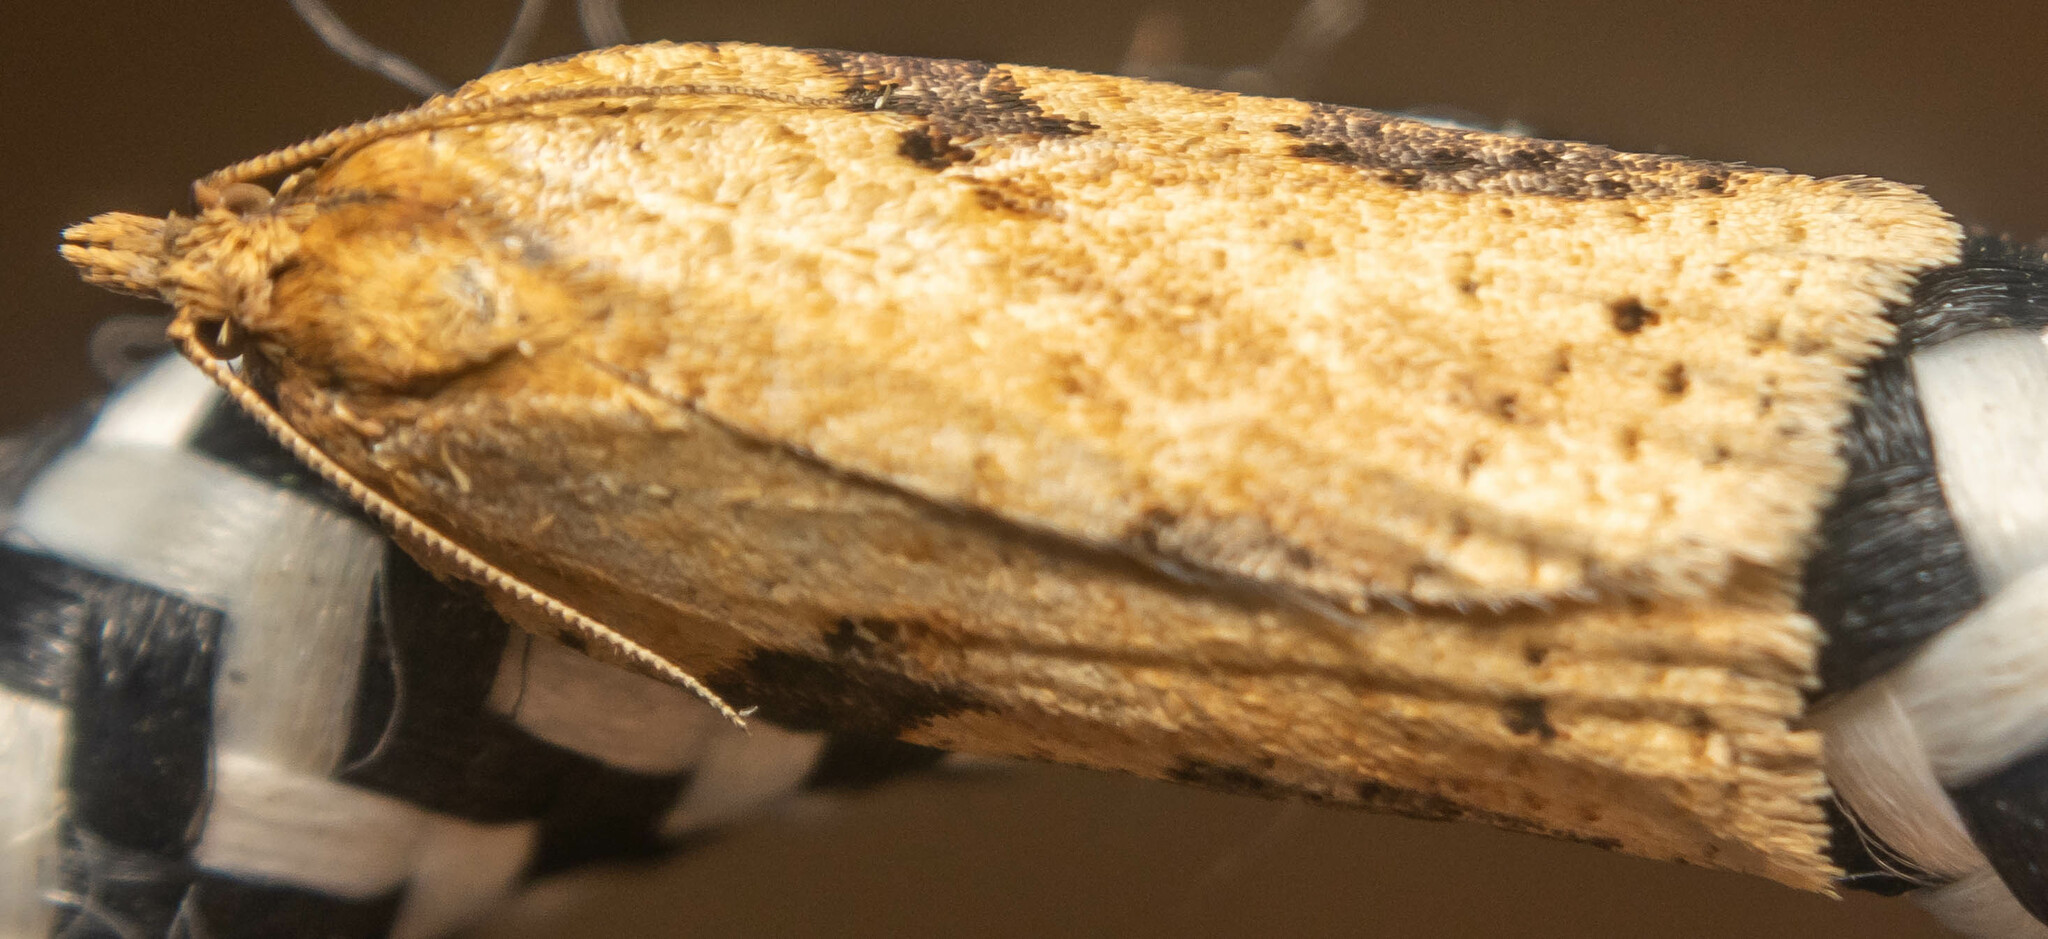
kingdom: Animalia
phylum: Arthropoda
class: Insecta
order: Lepidoptera
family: Tortricidae
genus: Clepsis
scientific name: Clepsis spectrana
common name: Cyclamen tortrix
